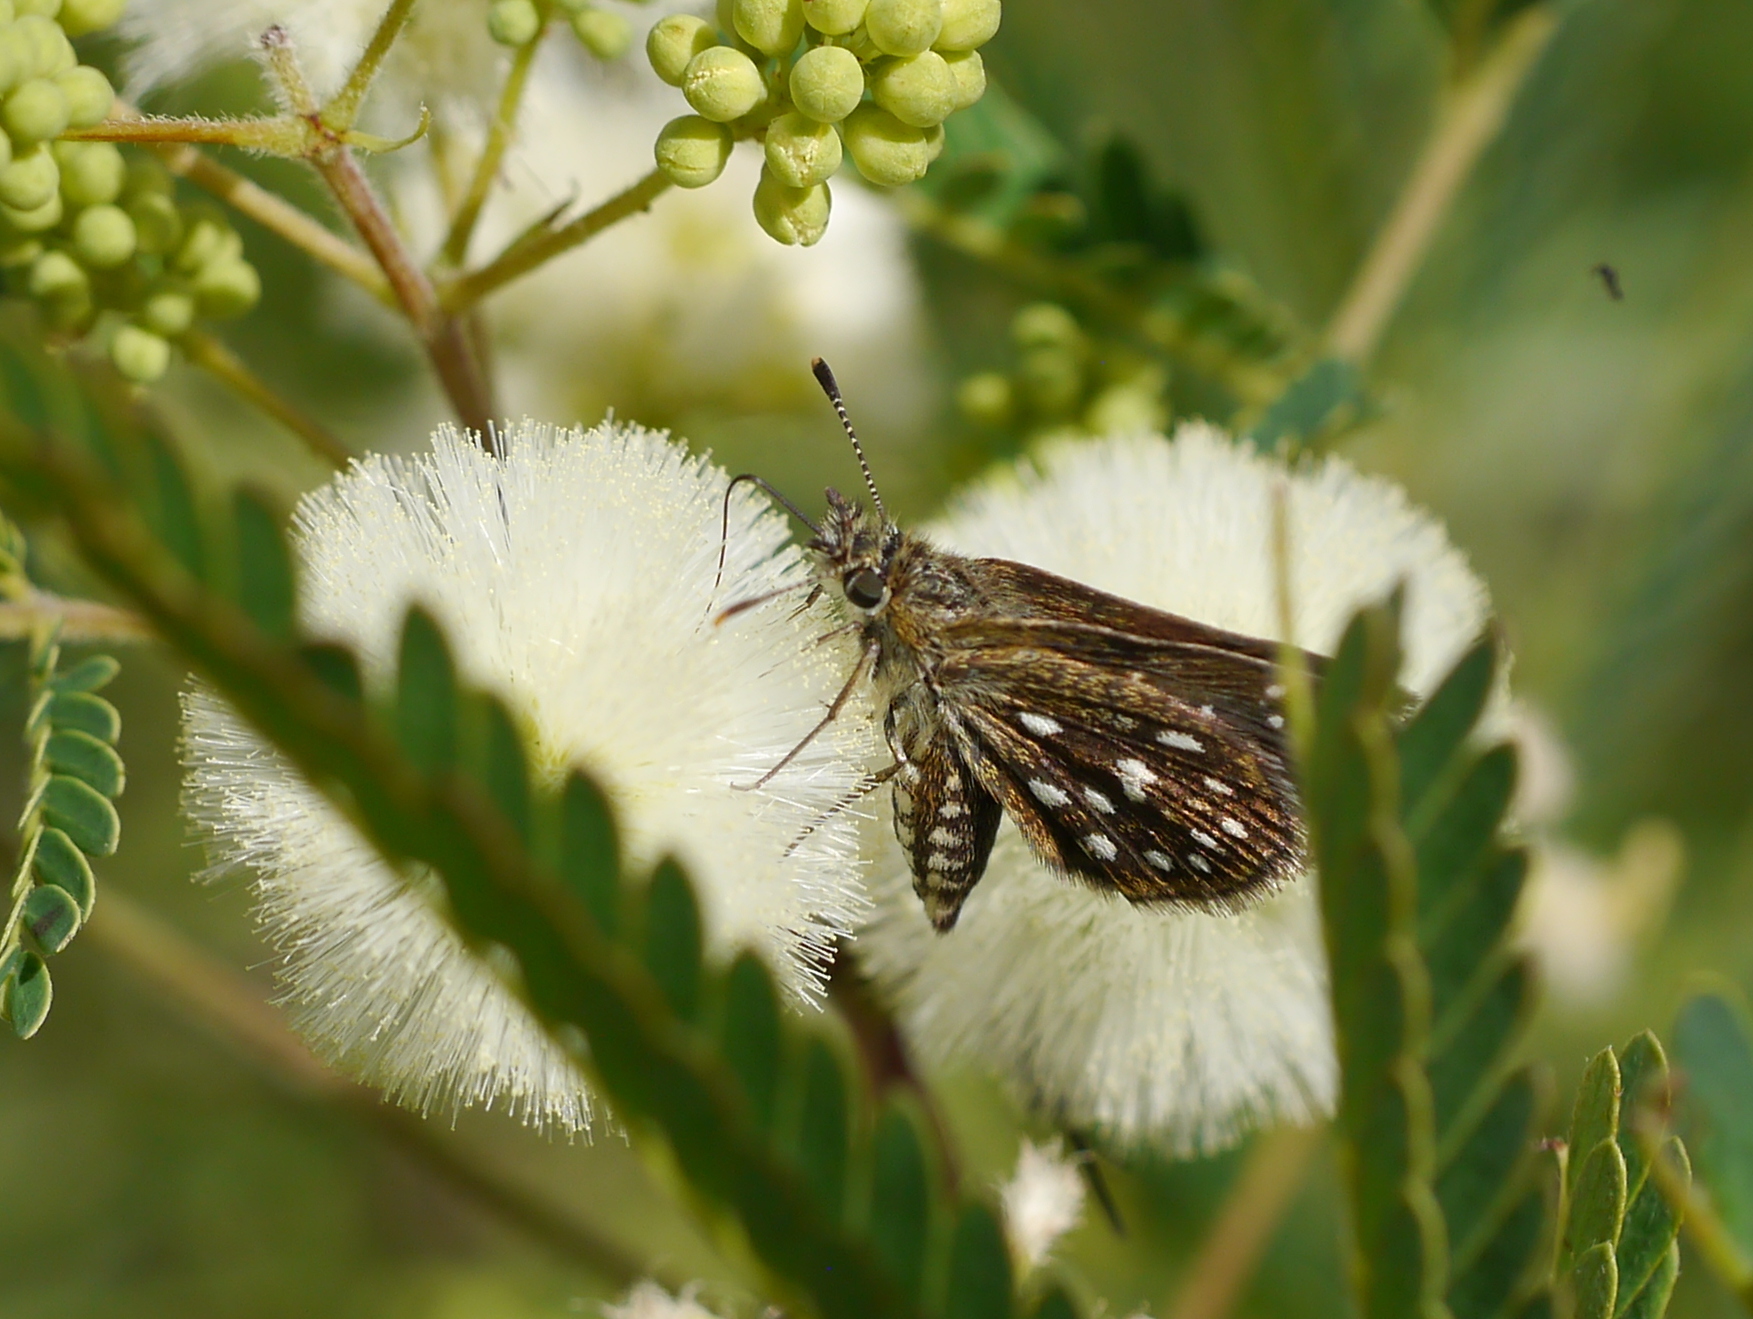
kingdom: Animalia
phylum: Arthropoda
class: Insecta
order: Lepidoptera
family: Hesperiidae
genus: Piruna
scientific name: Piruna aea
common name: Many-spotted skipperling
